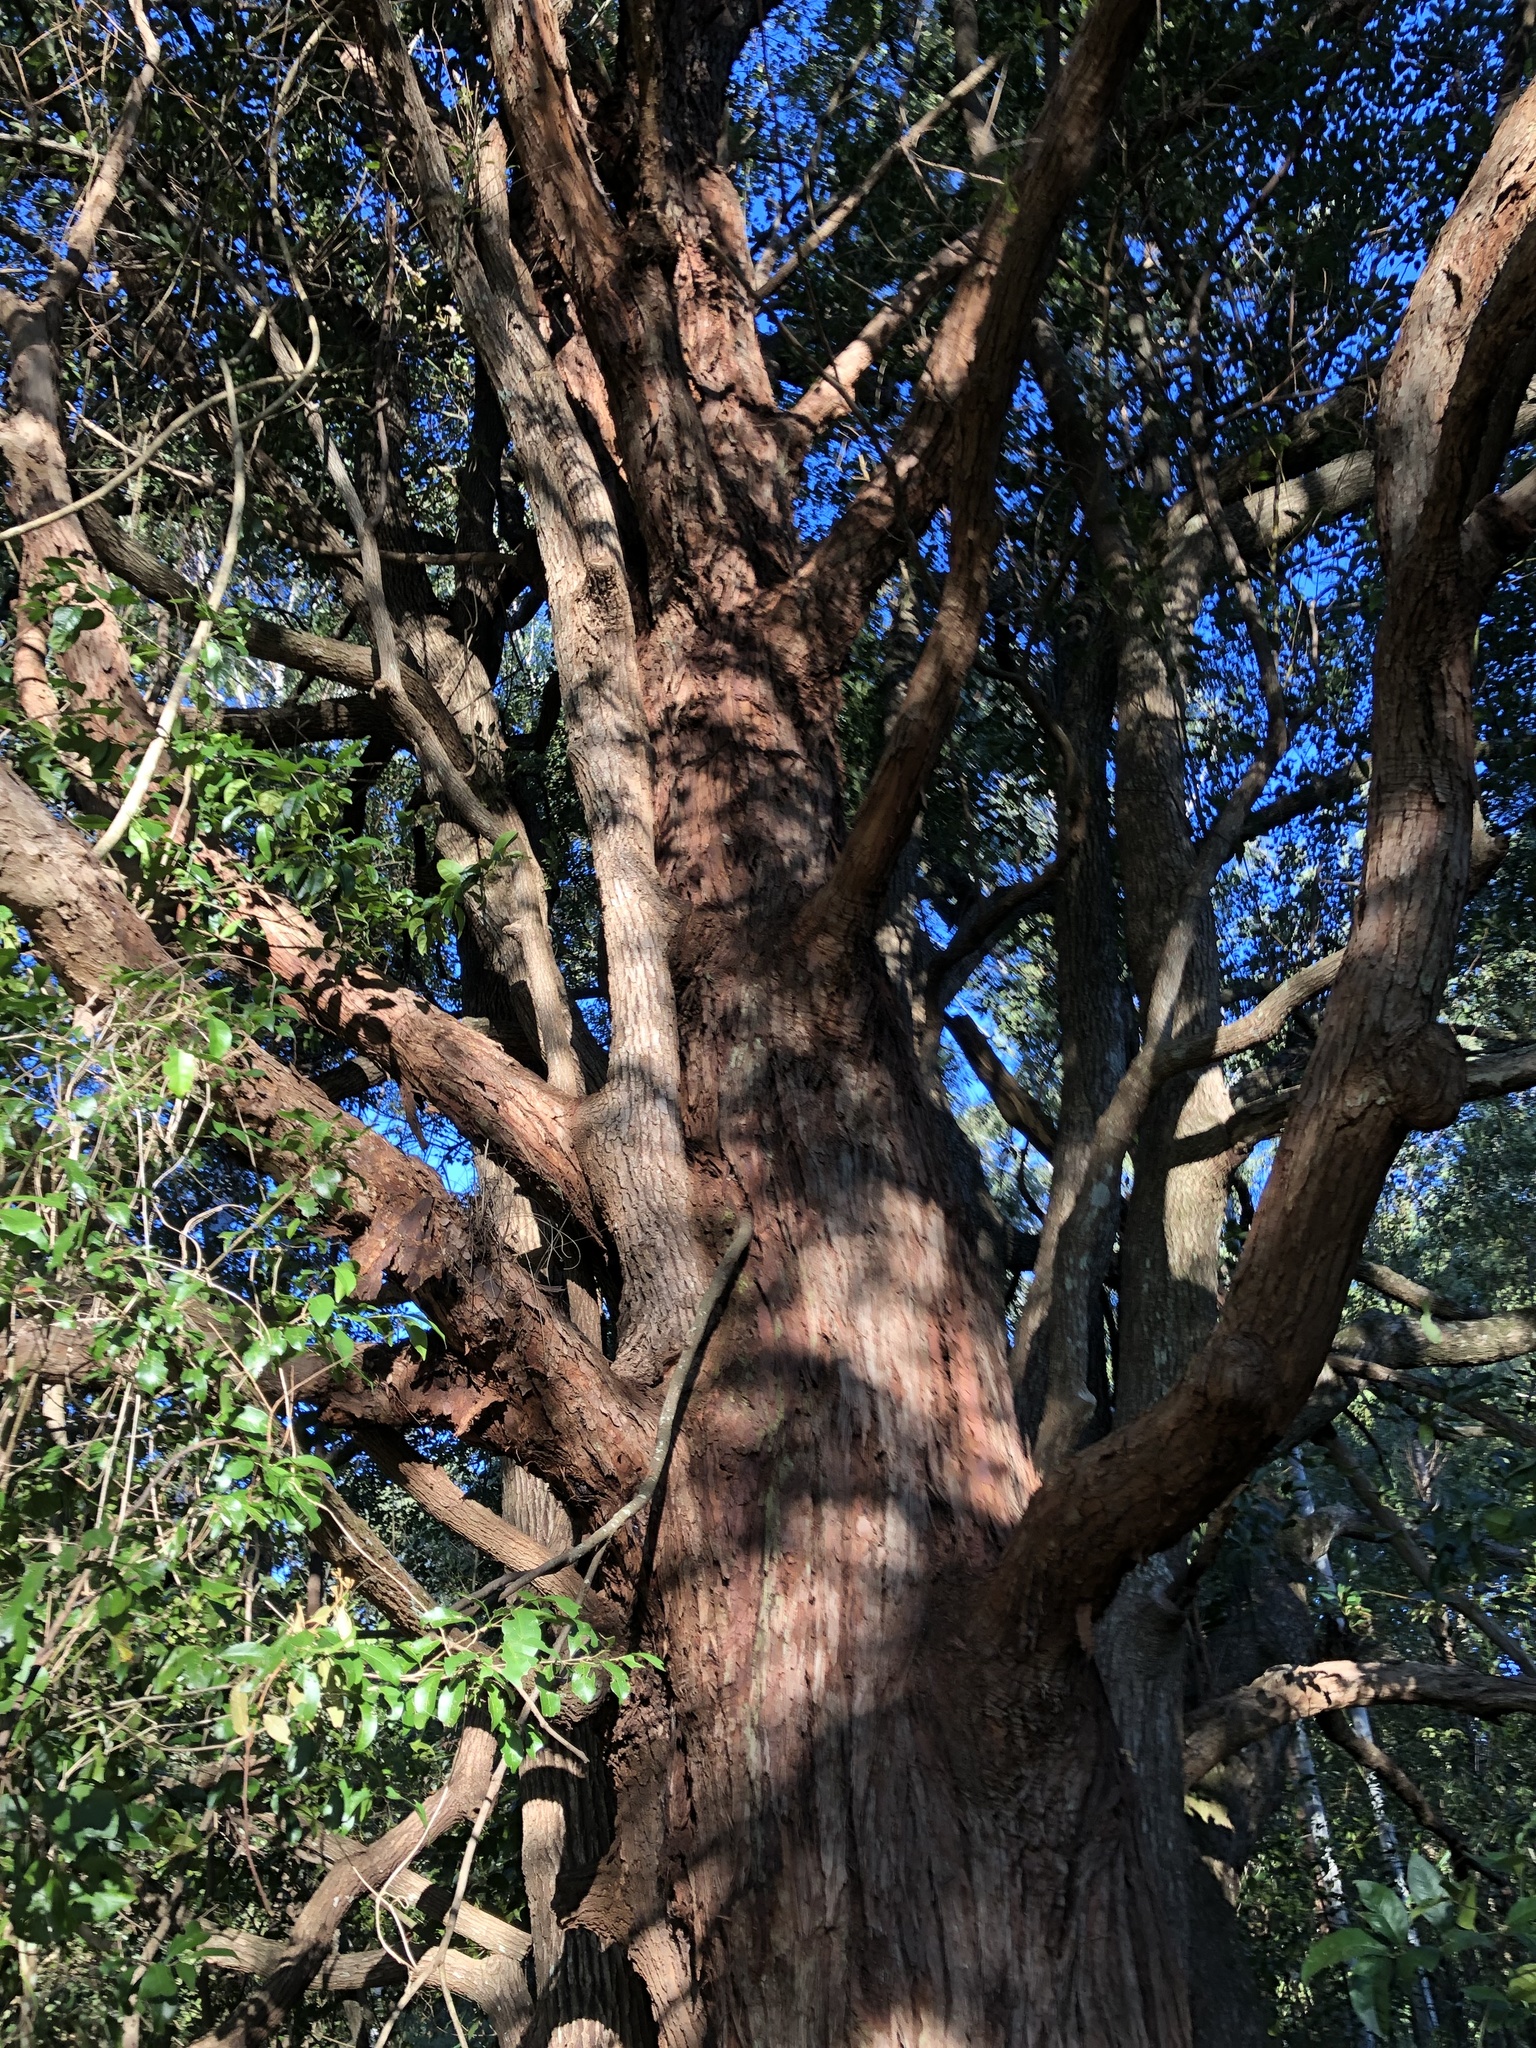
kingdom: Plantae
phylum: Tracheophyta
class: Magnoliopsida
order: Myrtales
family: Myrtaceae
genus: Eucalyptus
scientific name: Eucalyptus microcorys
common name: Tallowwood
